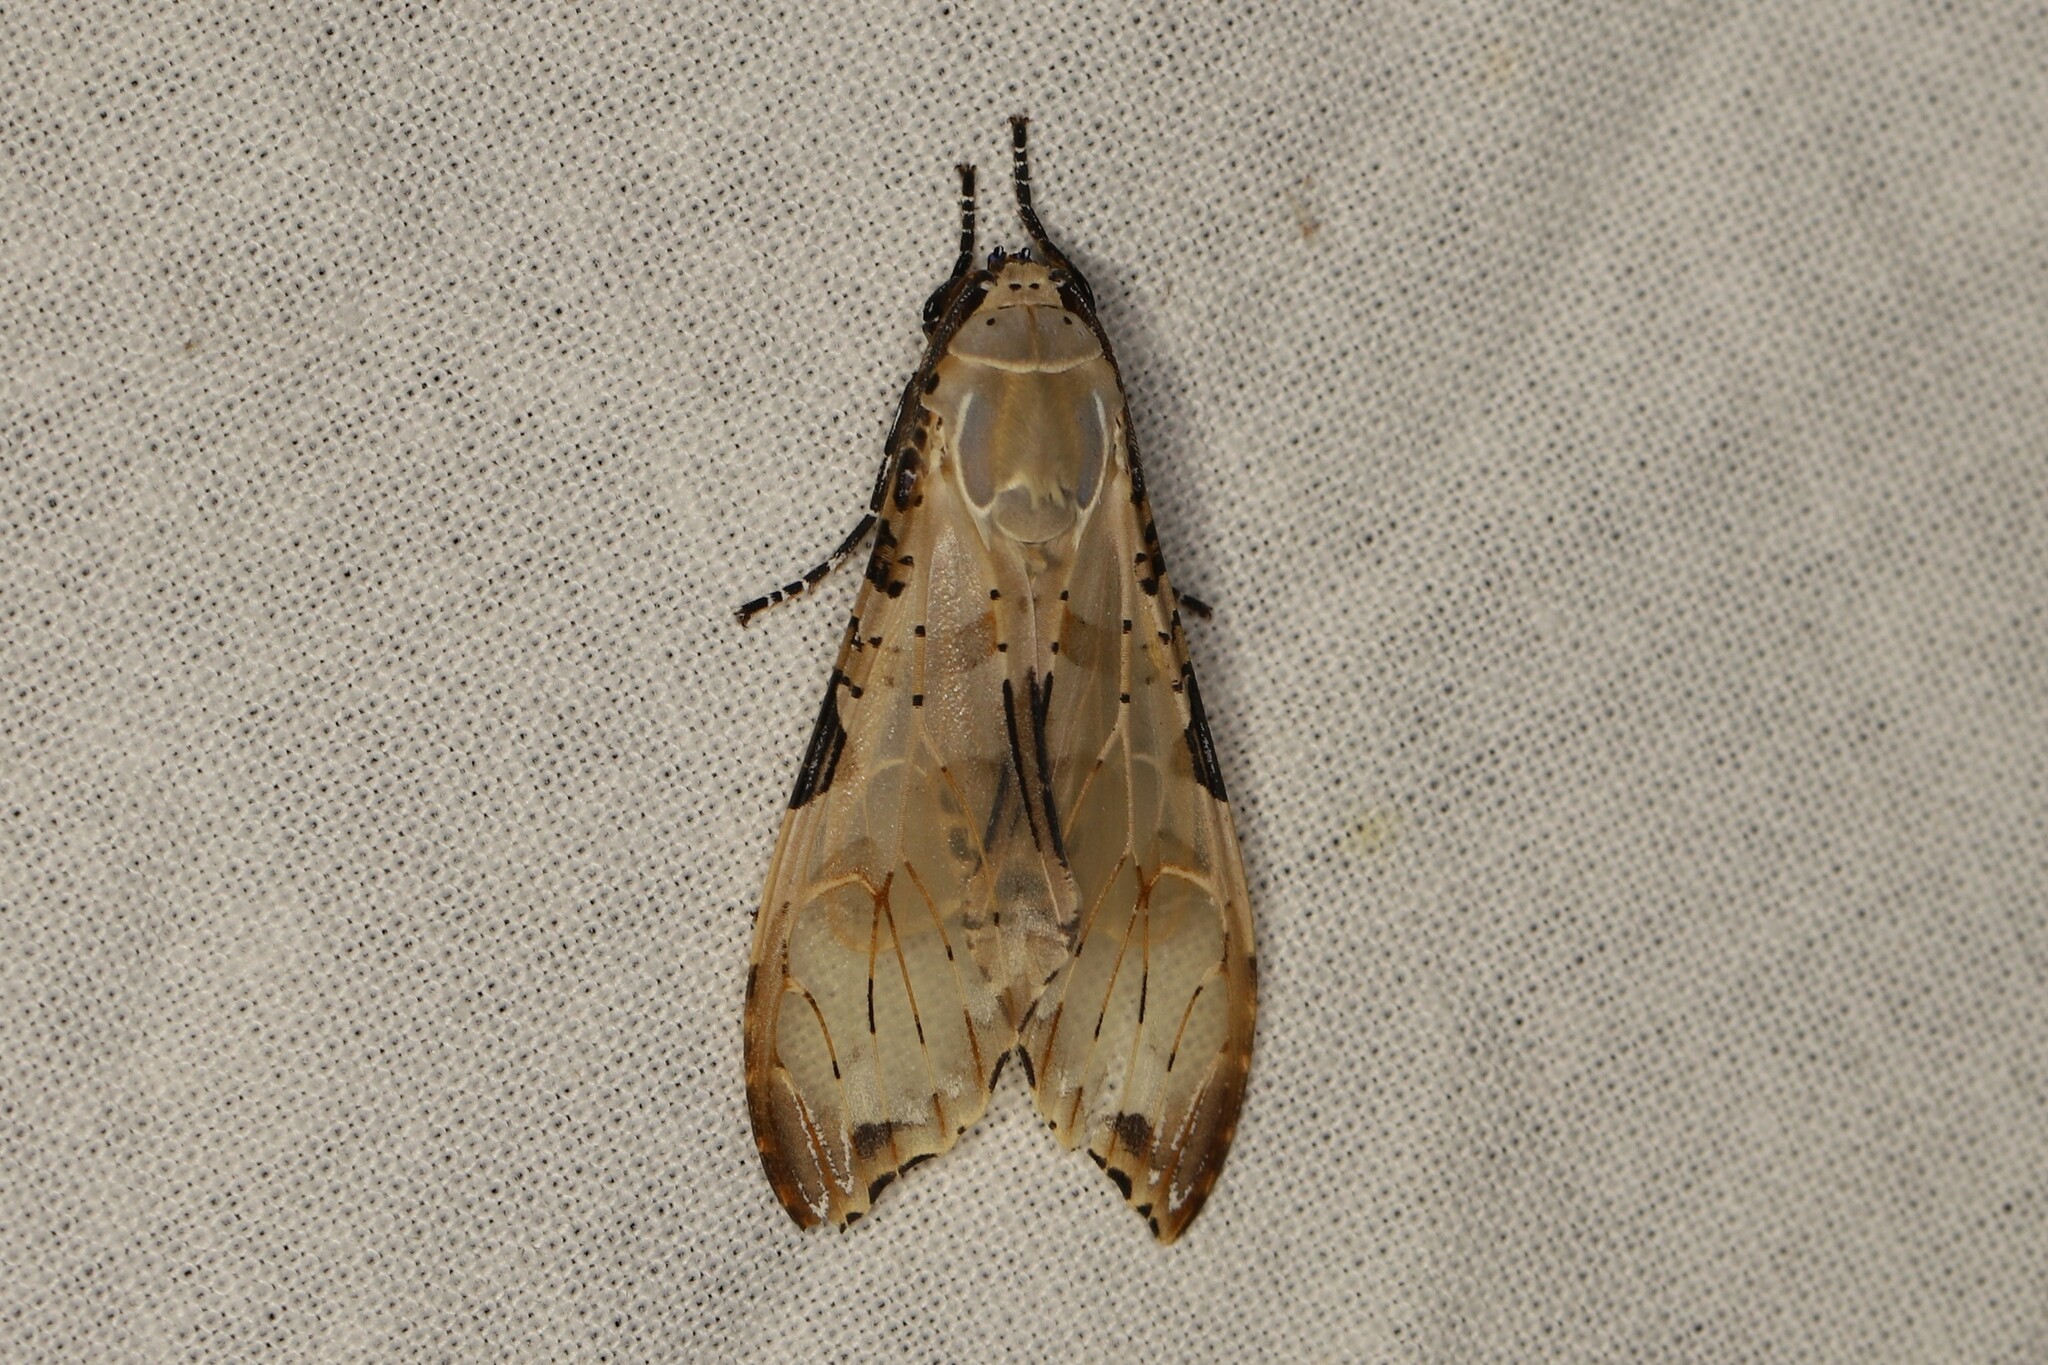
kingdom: Animalia
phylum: Arthropoda
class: Insecta
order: Lepidoptera
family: Erebidae
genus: Psychophasma
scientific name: Psychophasma erosa
